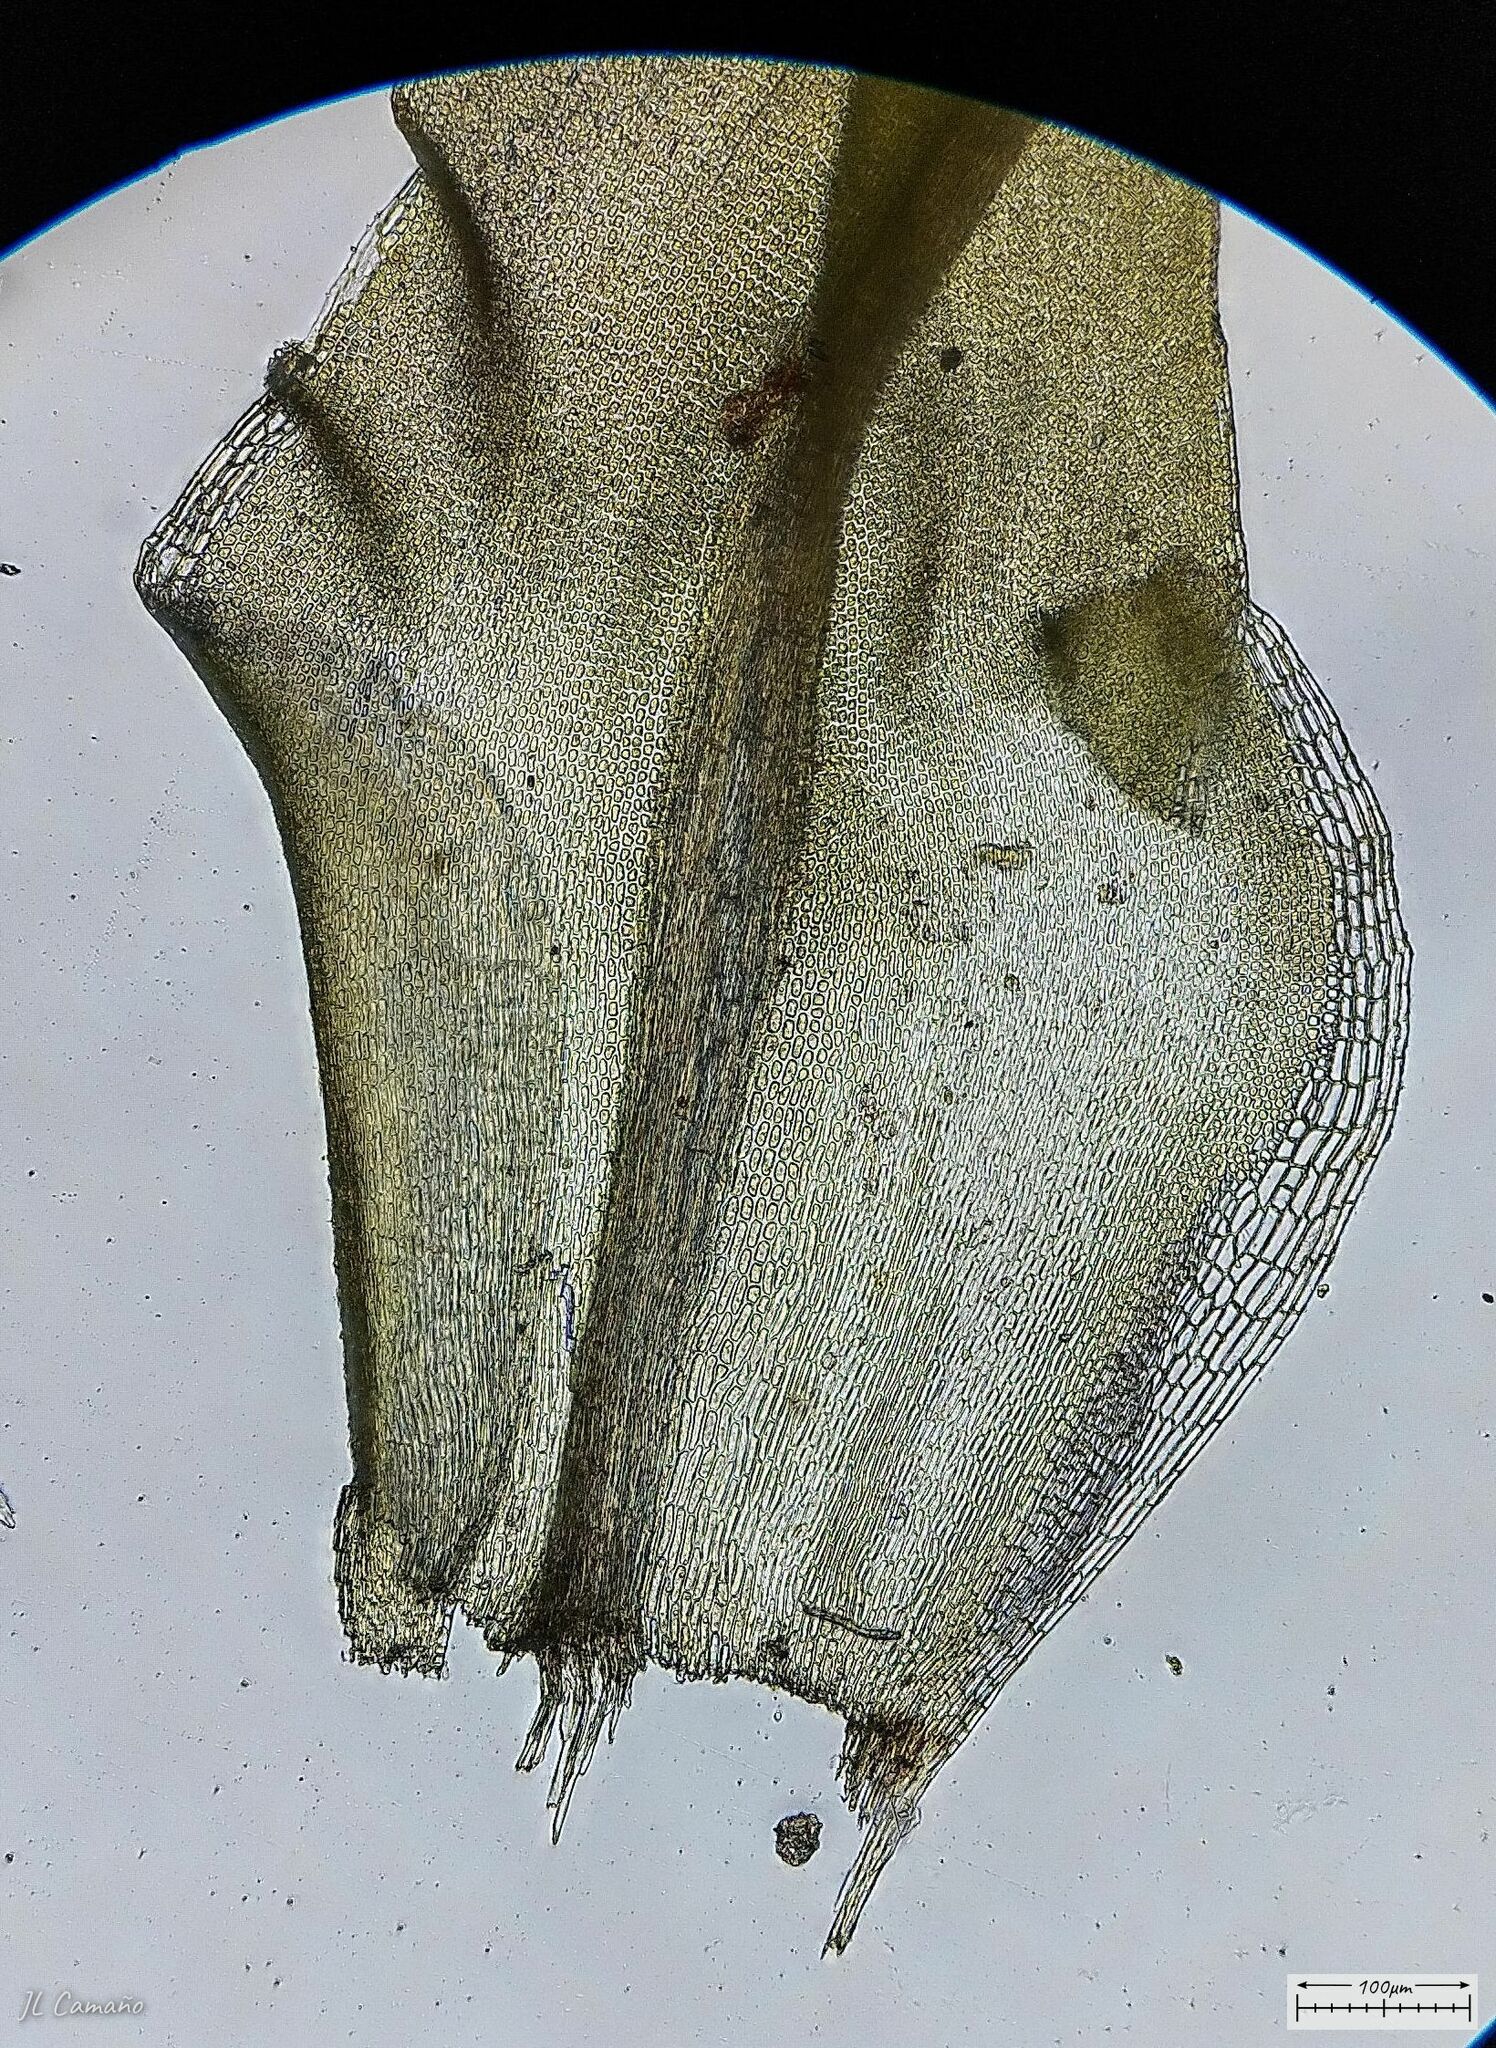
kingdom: Plantae
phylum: Bryophyta
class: Bryopsida
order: Pottiales
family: Pottiaceae
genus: Pleurochaete
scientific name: Pleurochaete squarrosa
